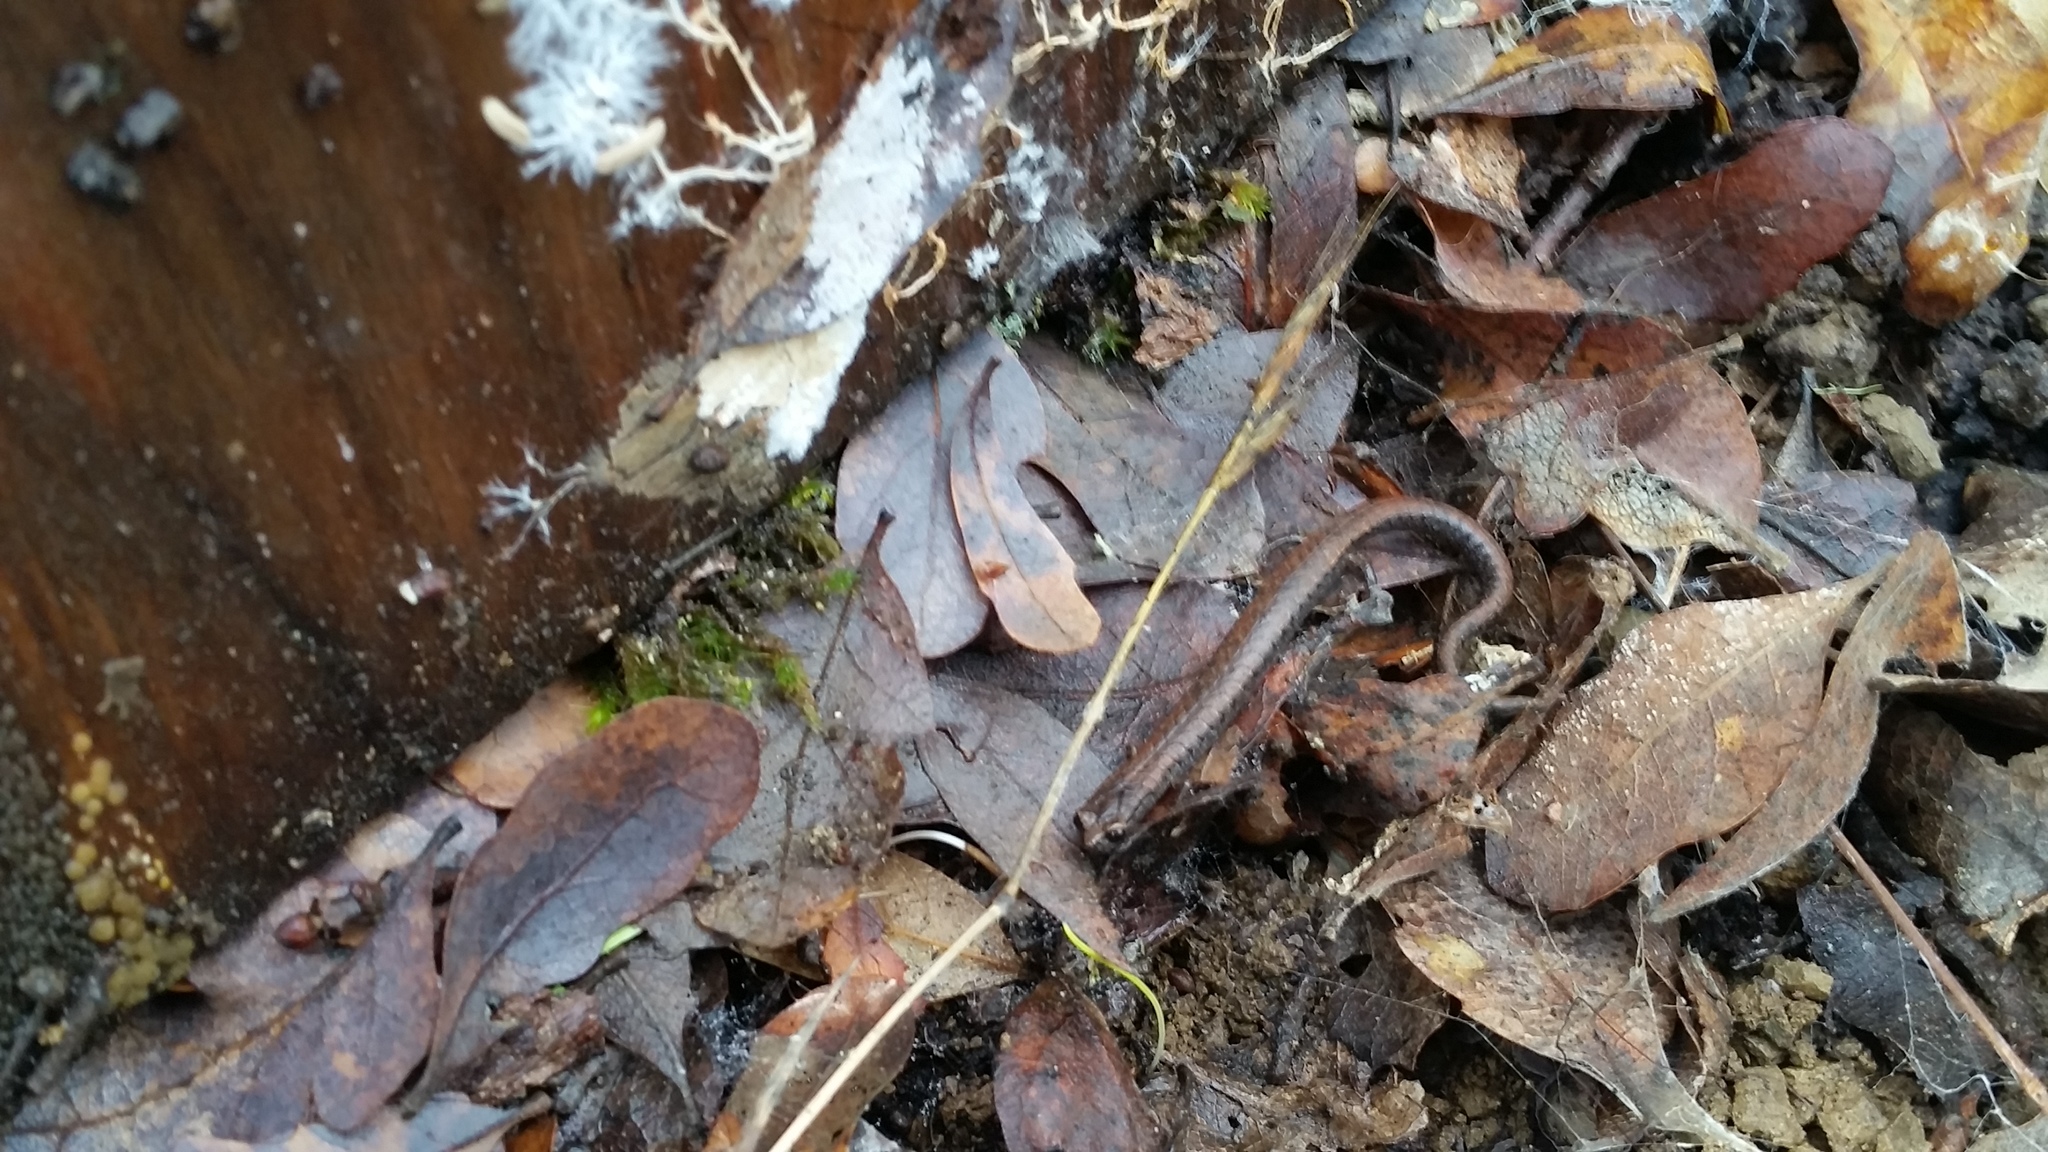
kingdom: Animalia
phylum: Chordata
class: Amphibia
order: Caudata
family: Plethodontidae
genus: Batrachoseps
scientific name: Batrachoseps attenuatus
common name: California slender salamander
